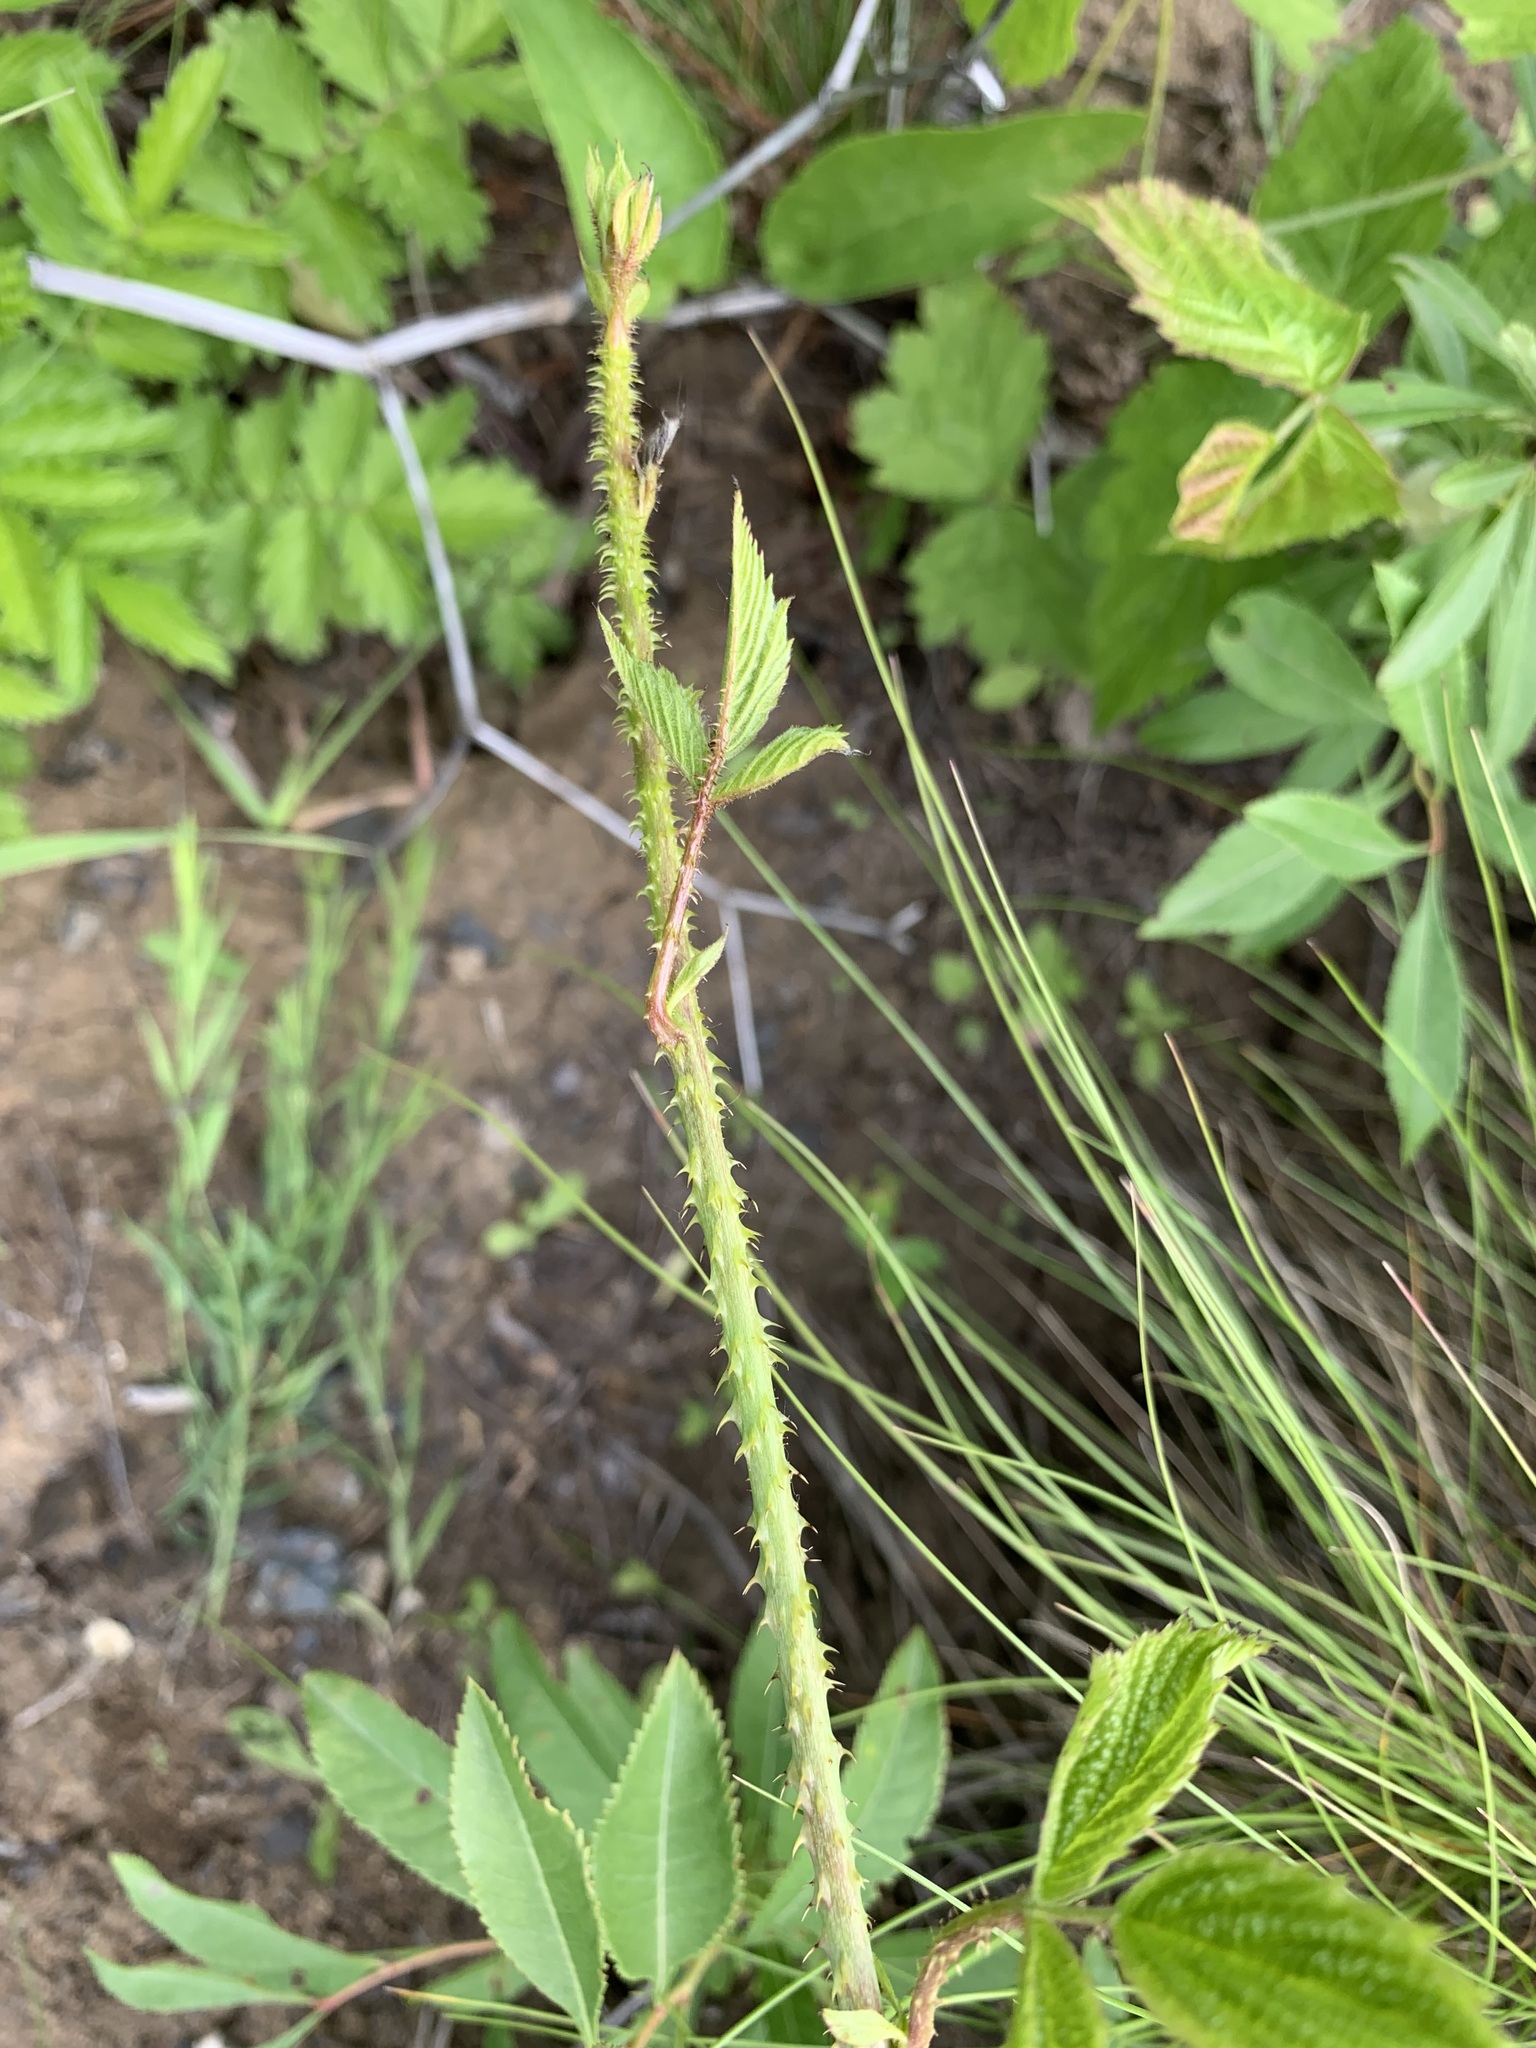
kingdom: Plantae
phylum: Tracheophyta
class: Magnoliopsida
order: Rosales
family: Rosaceae
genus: Rubus
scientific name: Rubus caesius
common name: Dewberry
